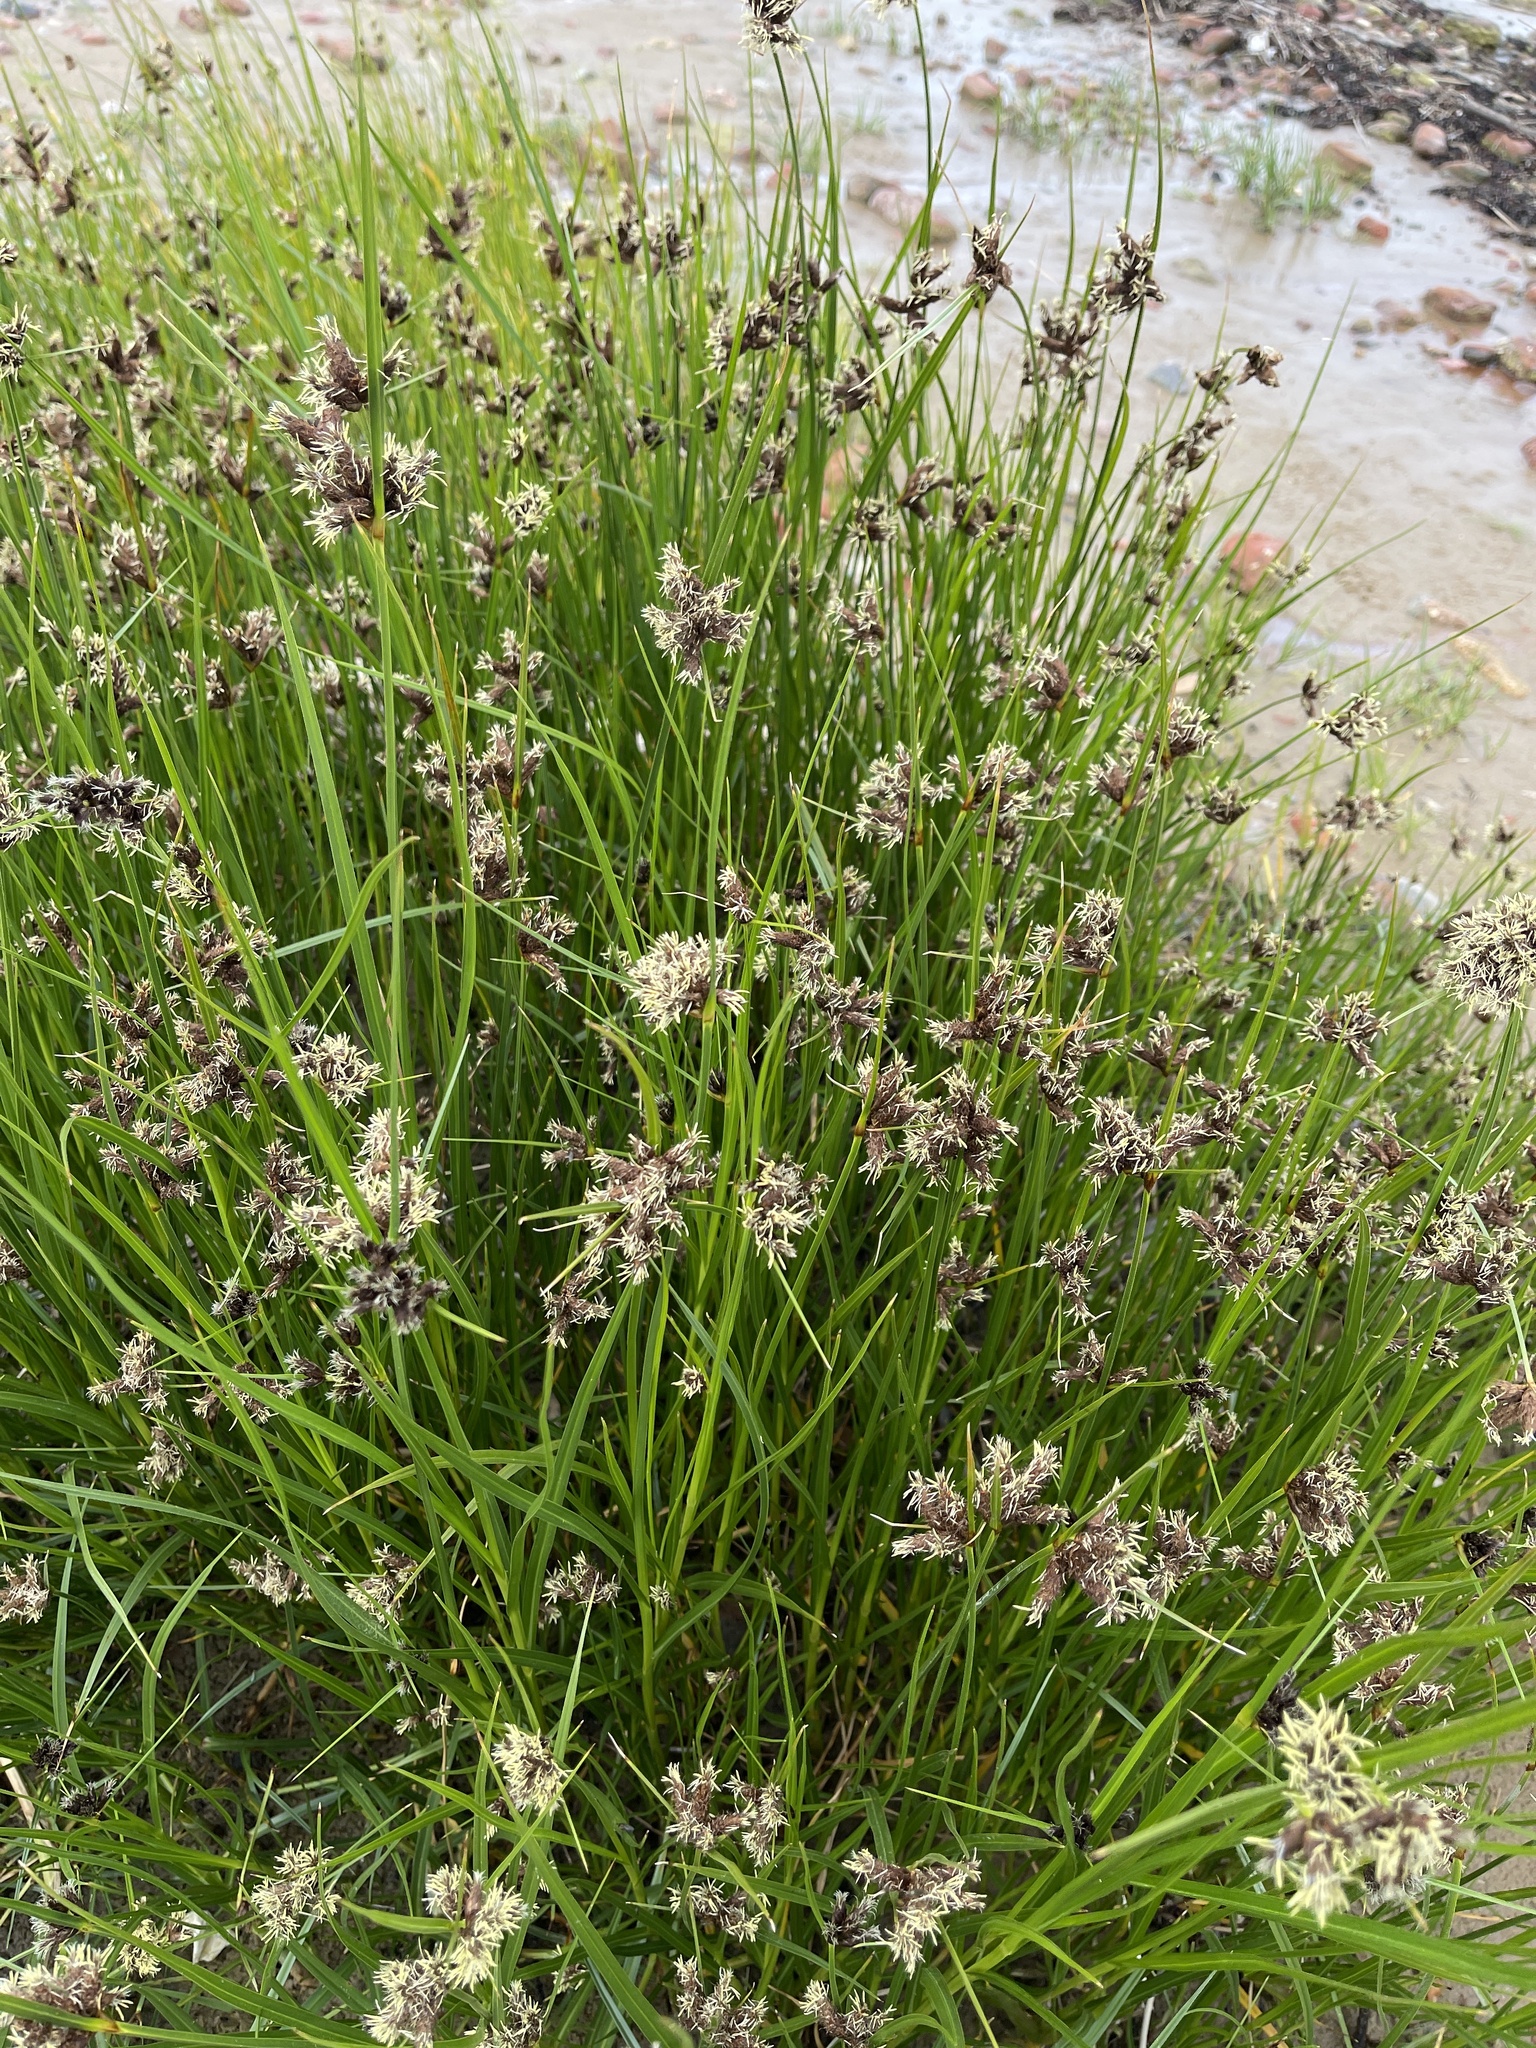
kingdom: Plantae
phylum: Tracheophyta
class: Liliopsida
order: Poales
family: Cyperaceae
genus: Bolboschoenus
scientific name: Bolboschoenus maritimus
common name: Sea club-rush
